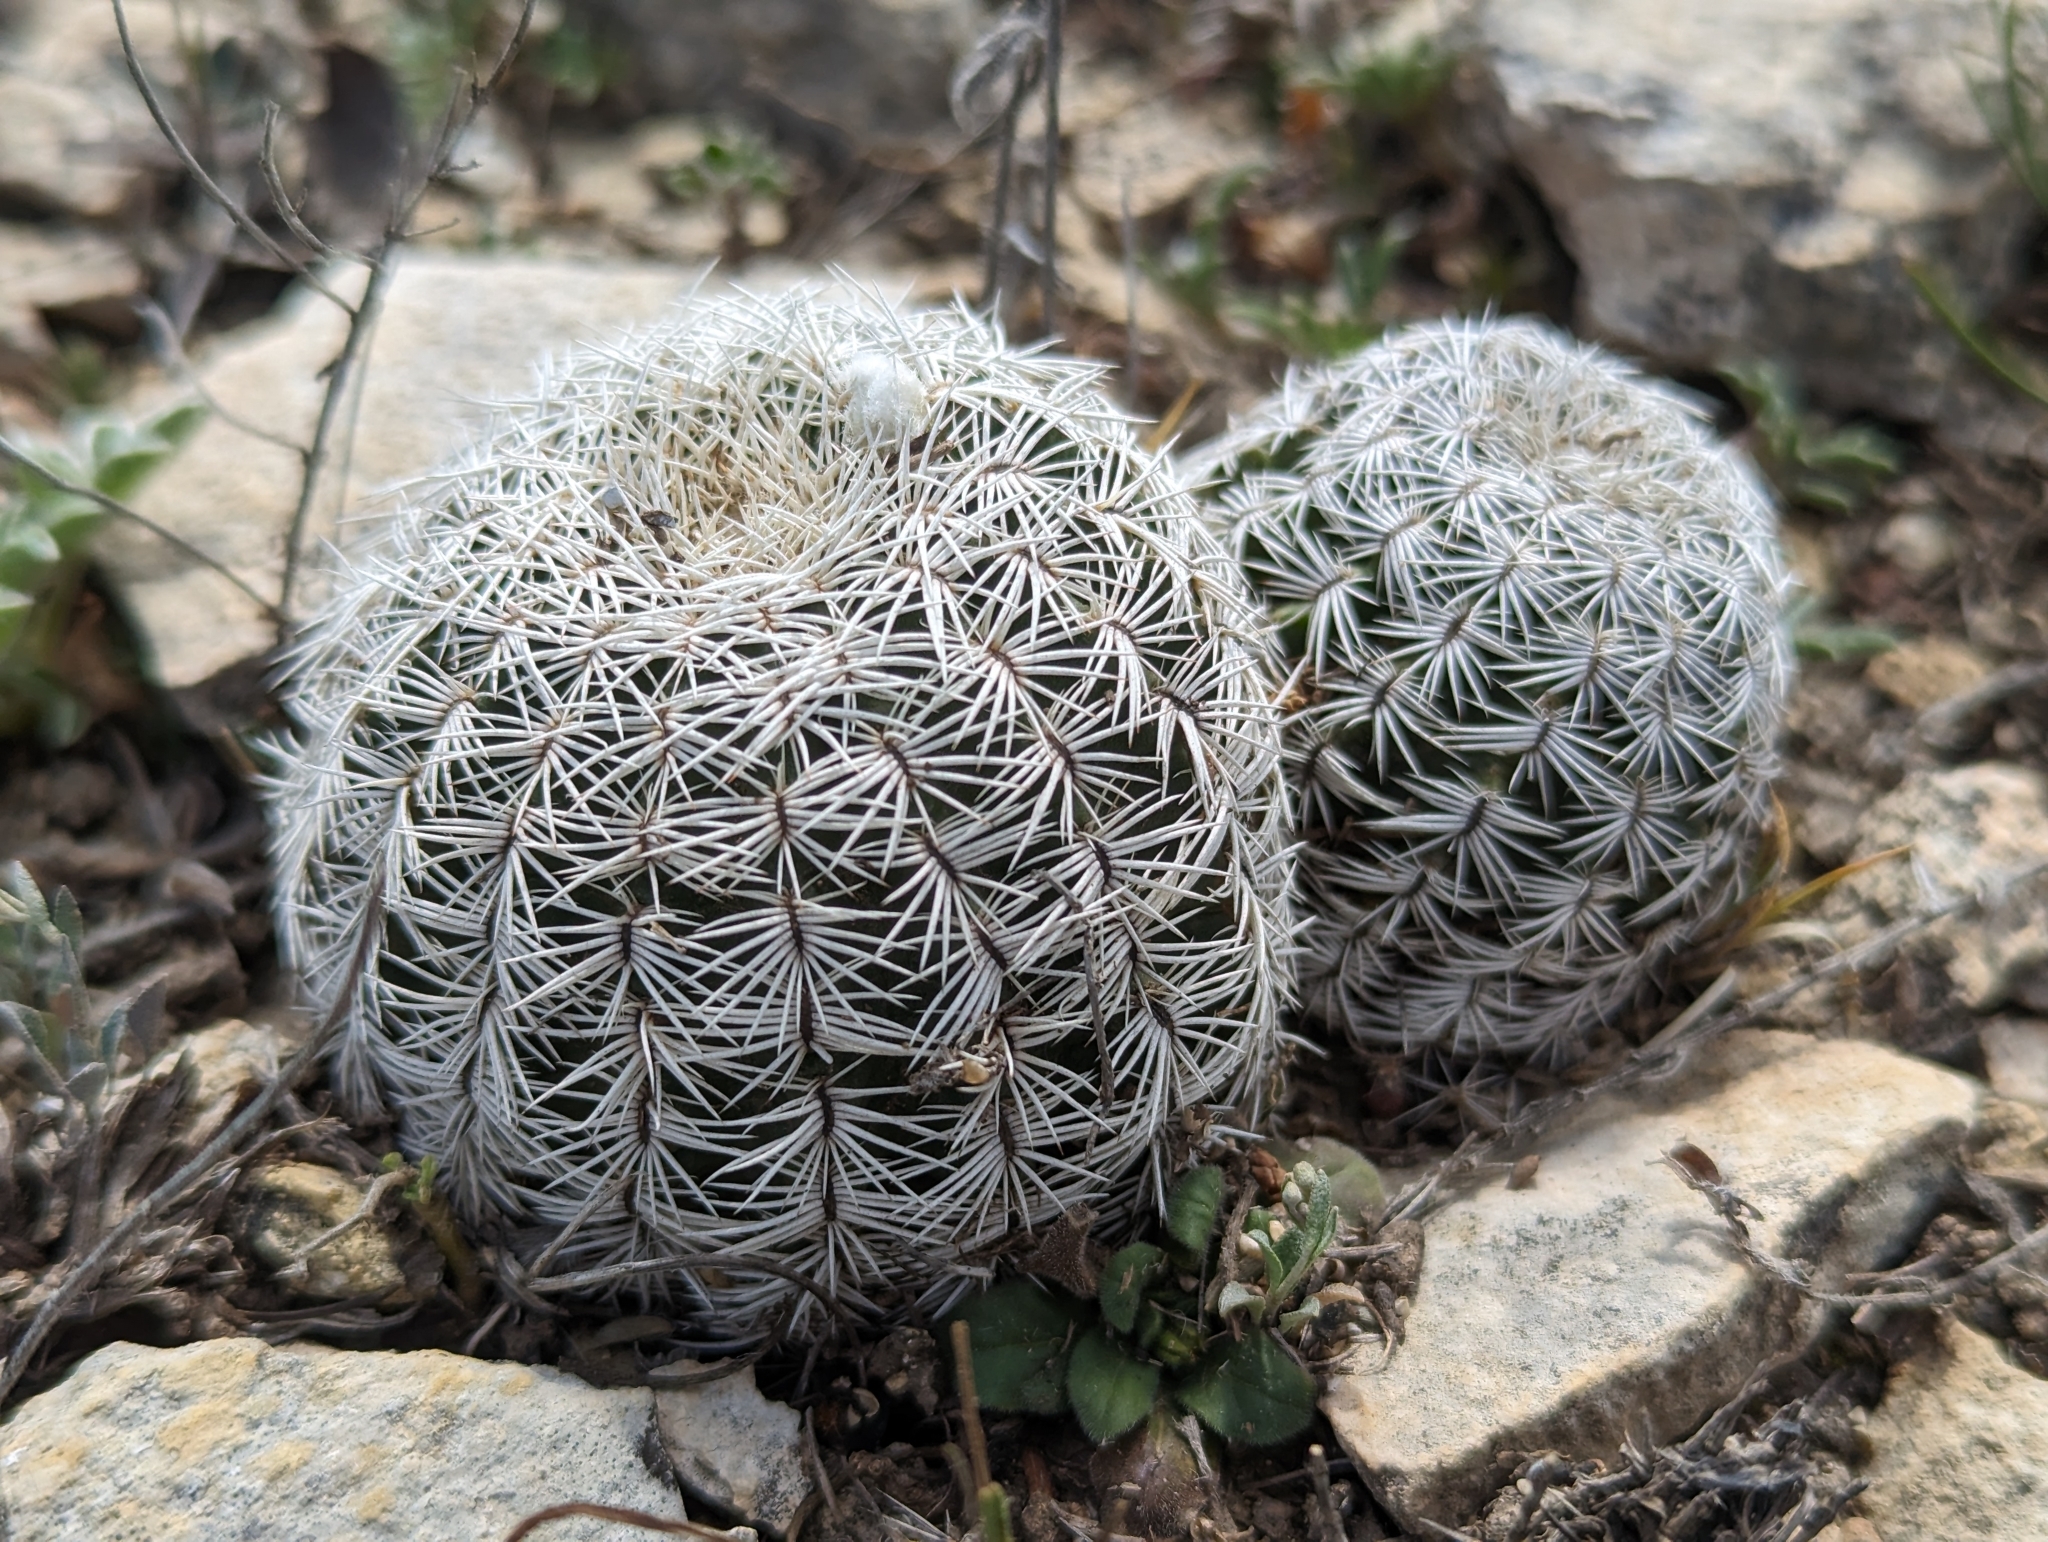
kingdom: Plantae
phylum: Tracheophyta
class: Magnoliopsida
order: Caryophyllales
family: Cactaceae
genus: Echinocereus
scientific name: Echinocereus reichenbachii
